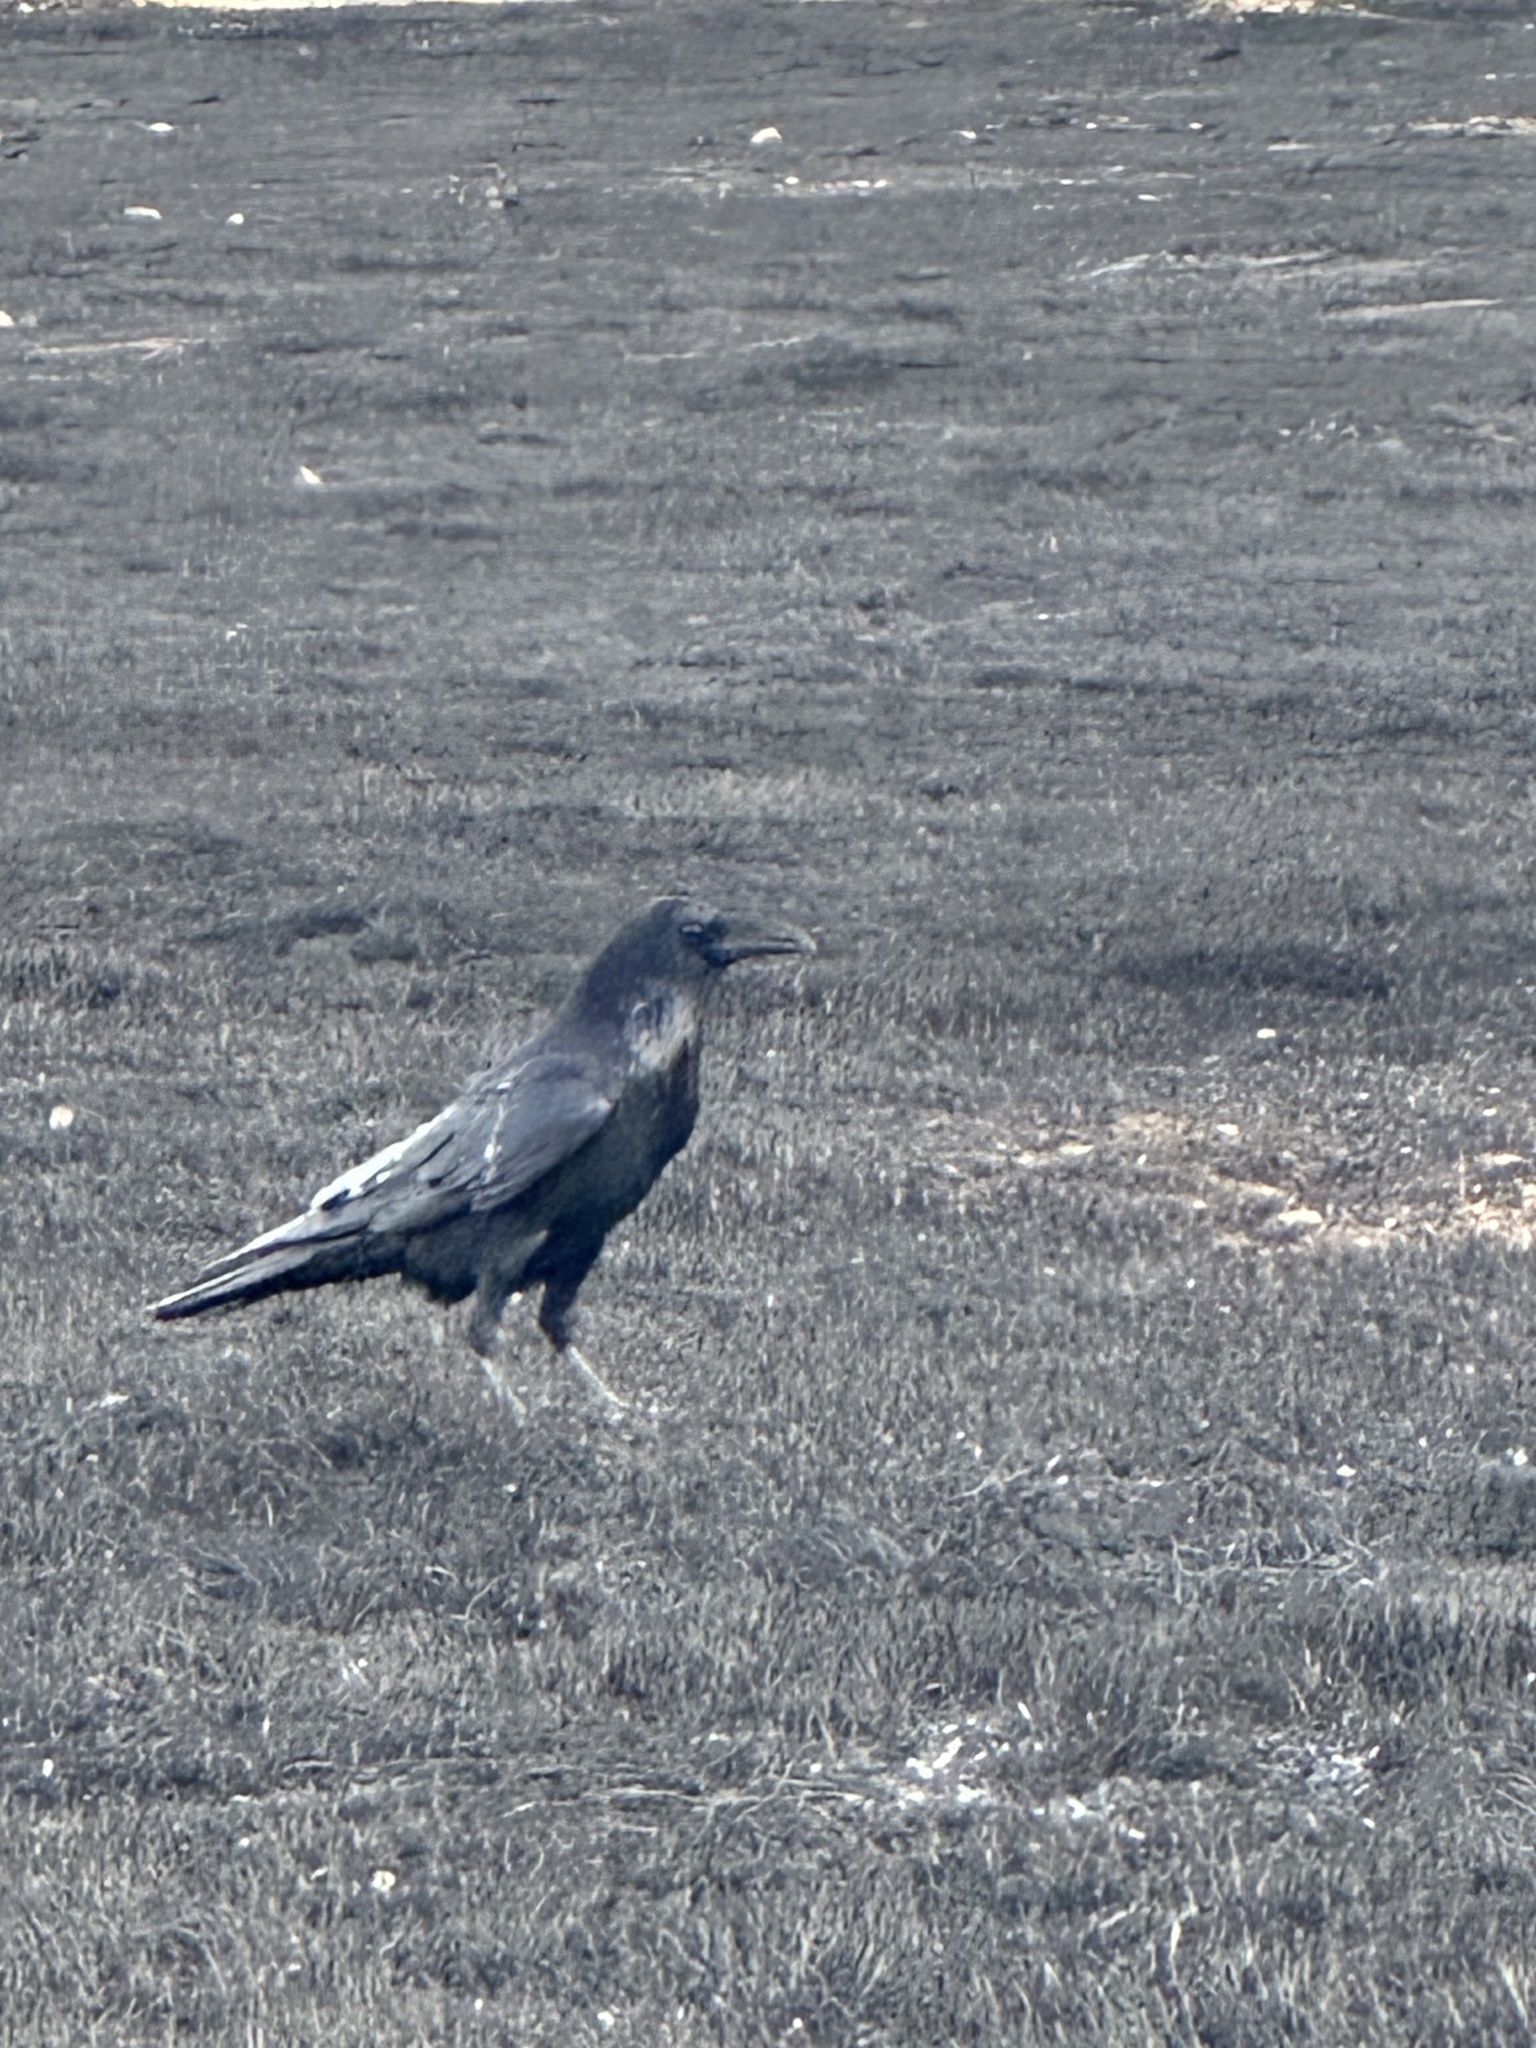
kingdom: Animalia
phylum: Chordata
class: Aves
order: Passeriformes
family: Corvidae
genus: Corvus
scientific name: Corvus corax
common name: Common raven
